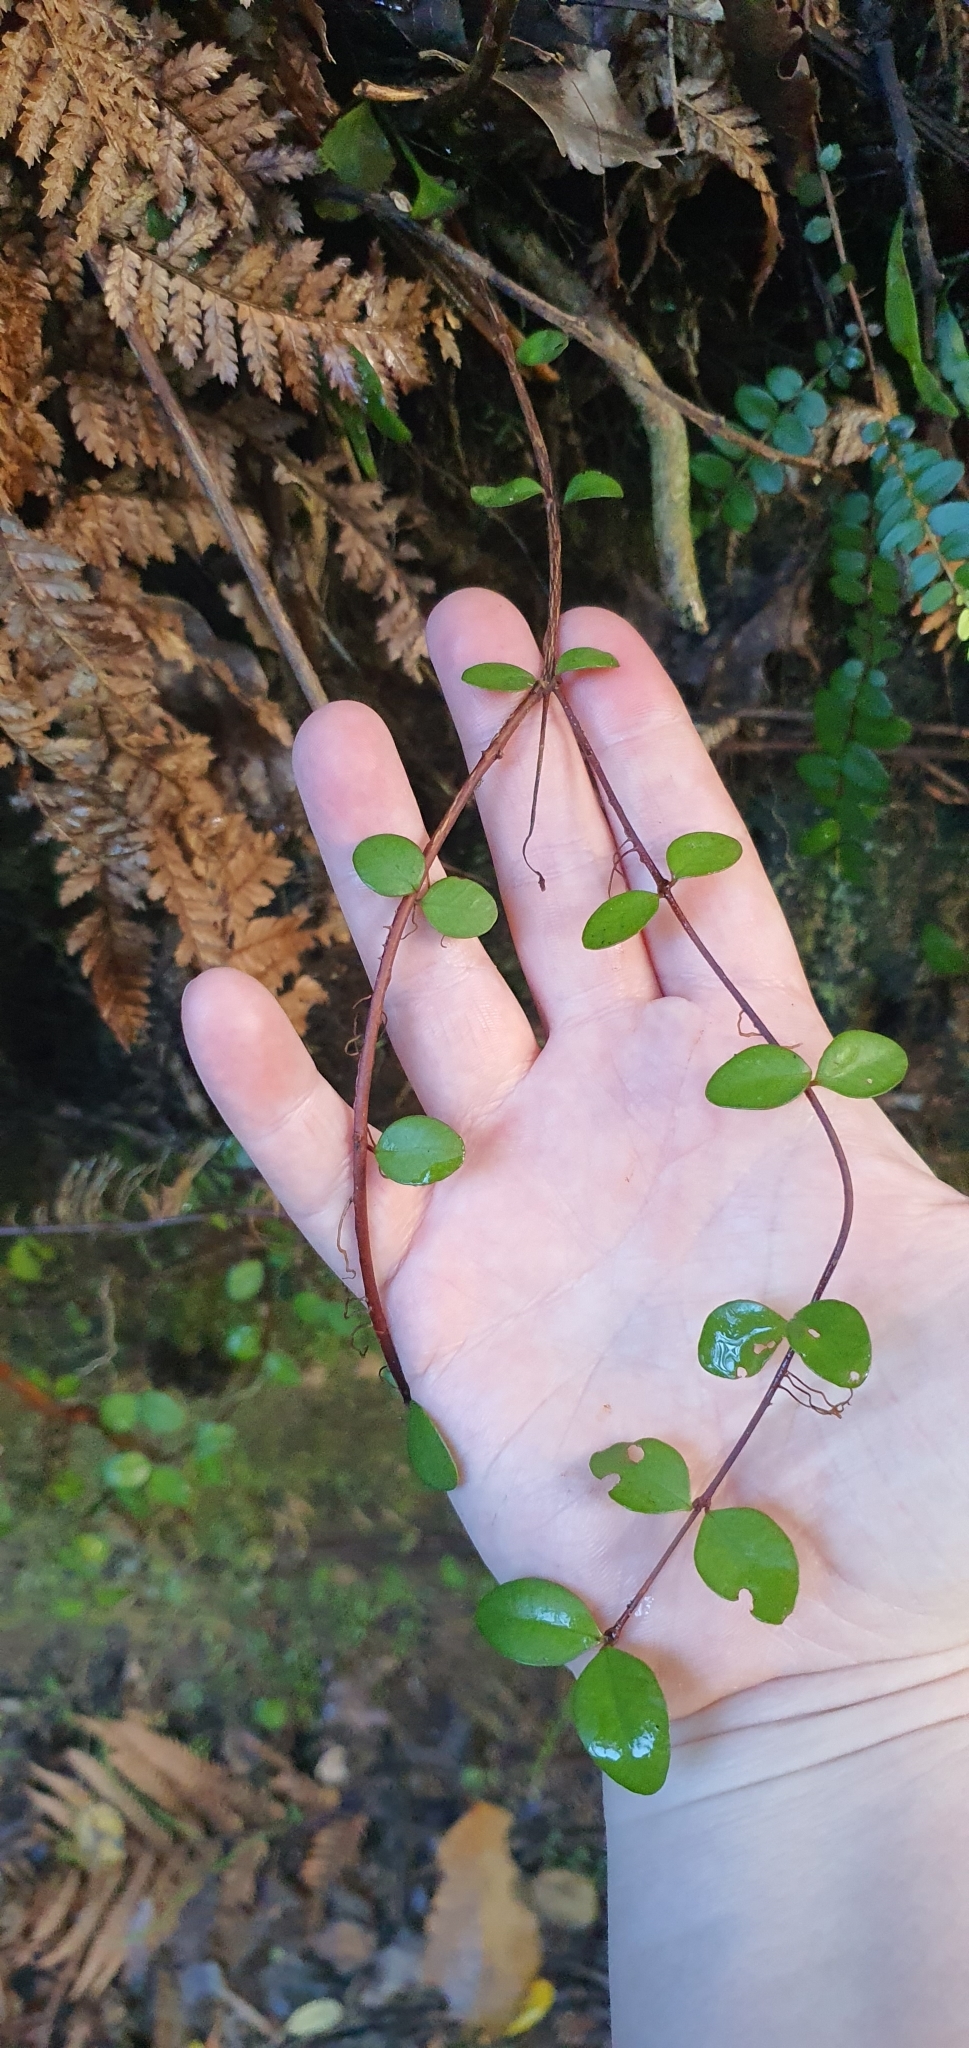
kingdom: Plantae
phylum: Tracheophyta
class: Magnoliopsida
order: Myrtales
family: Myrtaceae
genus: Metrosideros
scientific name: Metrosideros fulgens
